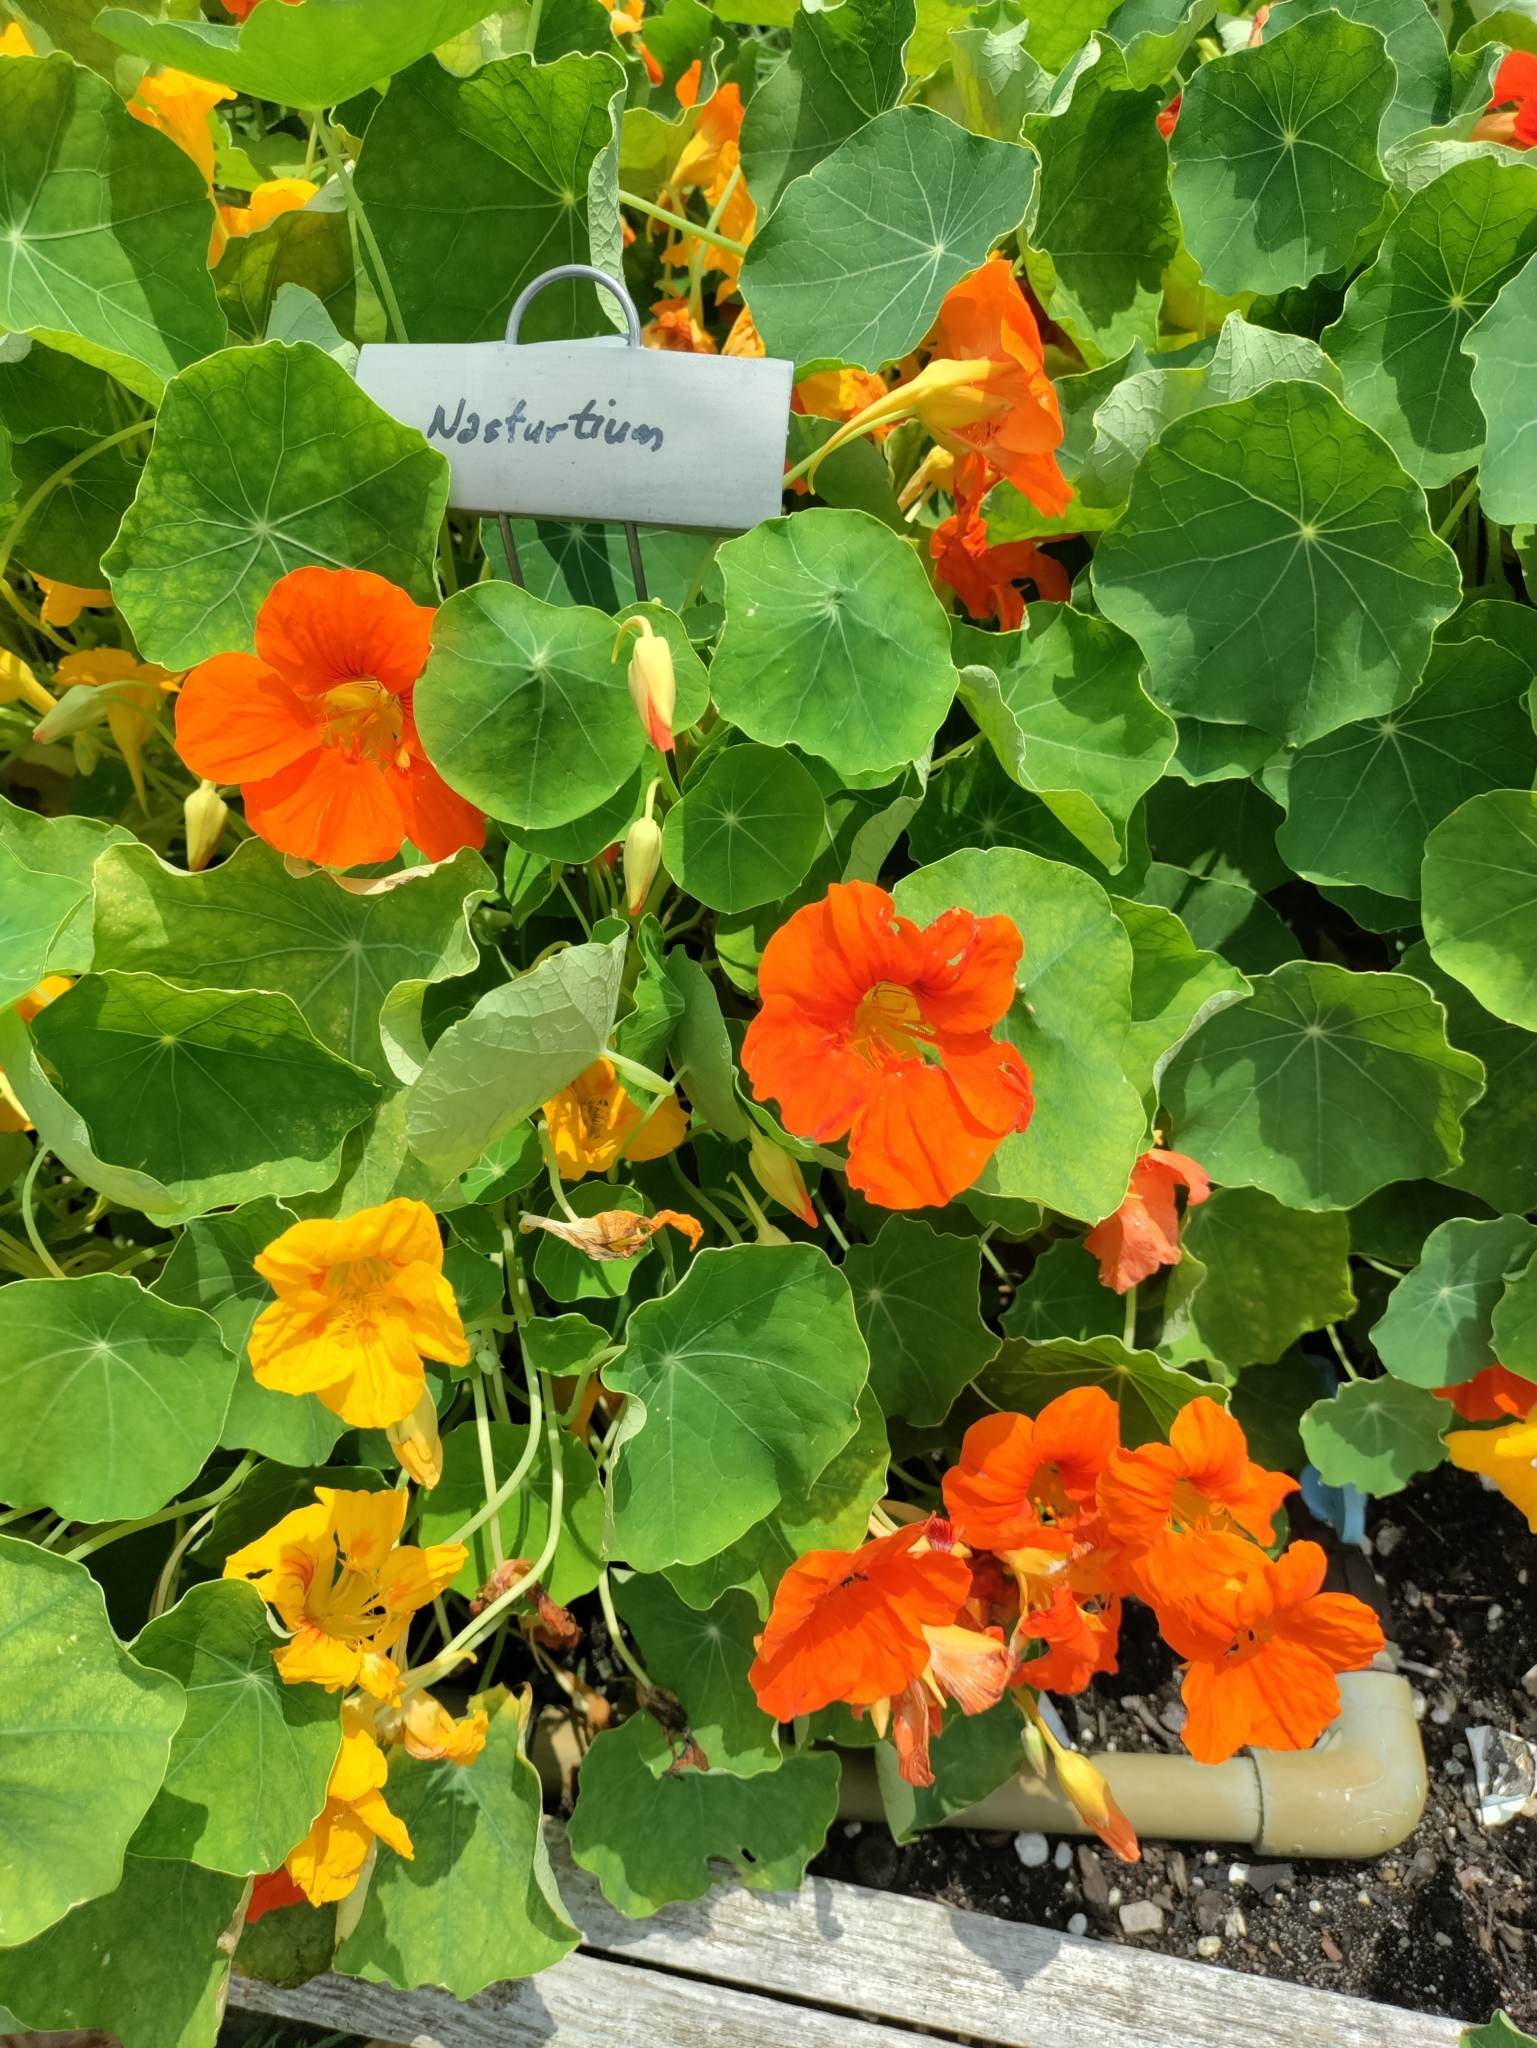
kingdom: Plantae
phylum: Tracheophyta
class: Magnoliopsida
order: Brassicales
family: Tropaeolaceae
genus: Tropaeolum
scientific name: Tropaeolum majus
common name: Nasturtium
